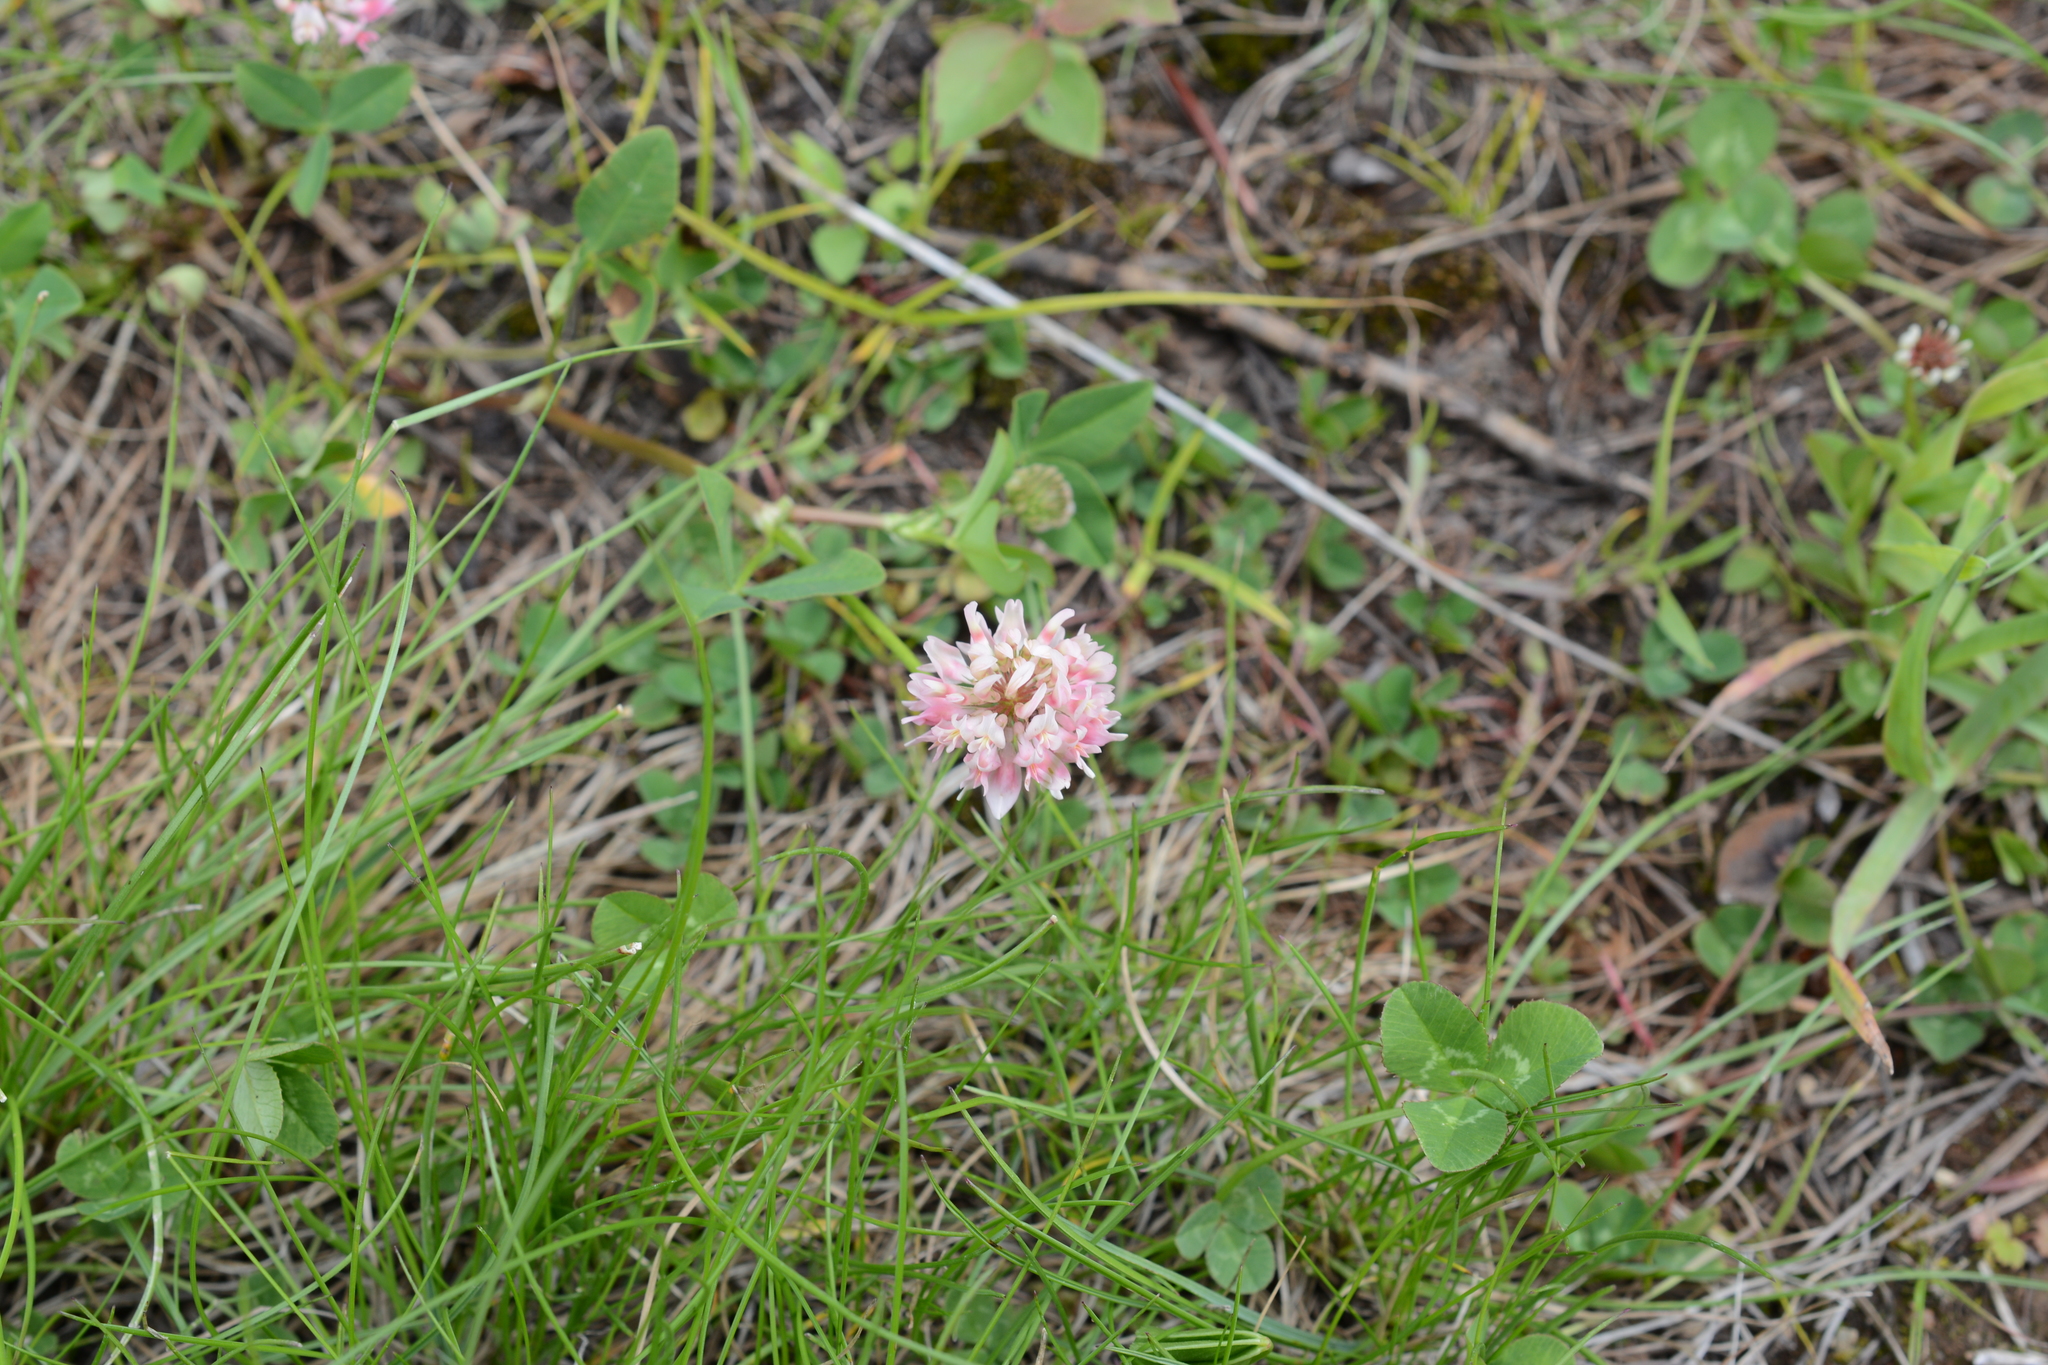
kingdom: Plantae
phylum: Tracheophyta
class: Magnoliopsida
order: Fabales
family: Fabaceae
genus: Trifolium
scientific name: Trifolium hybridum
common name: Alsike clover
